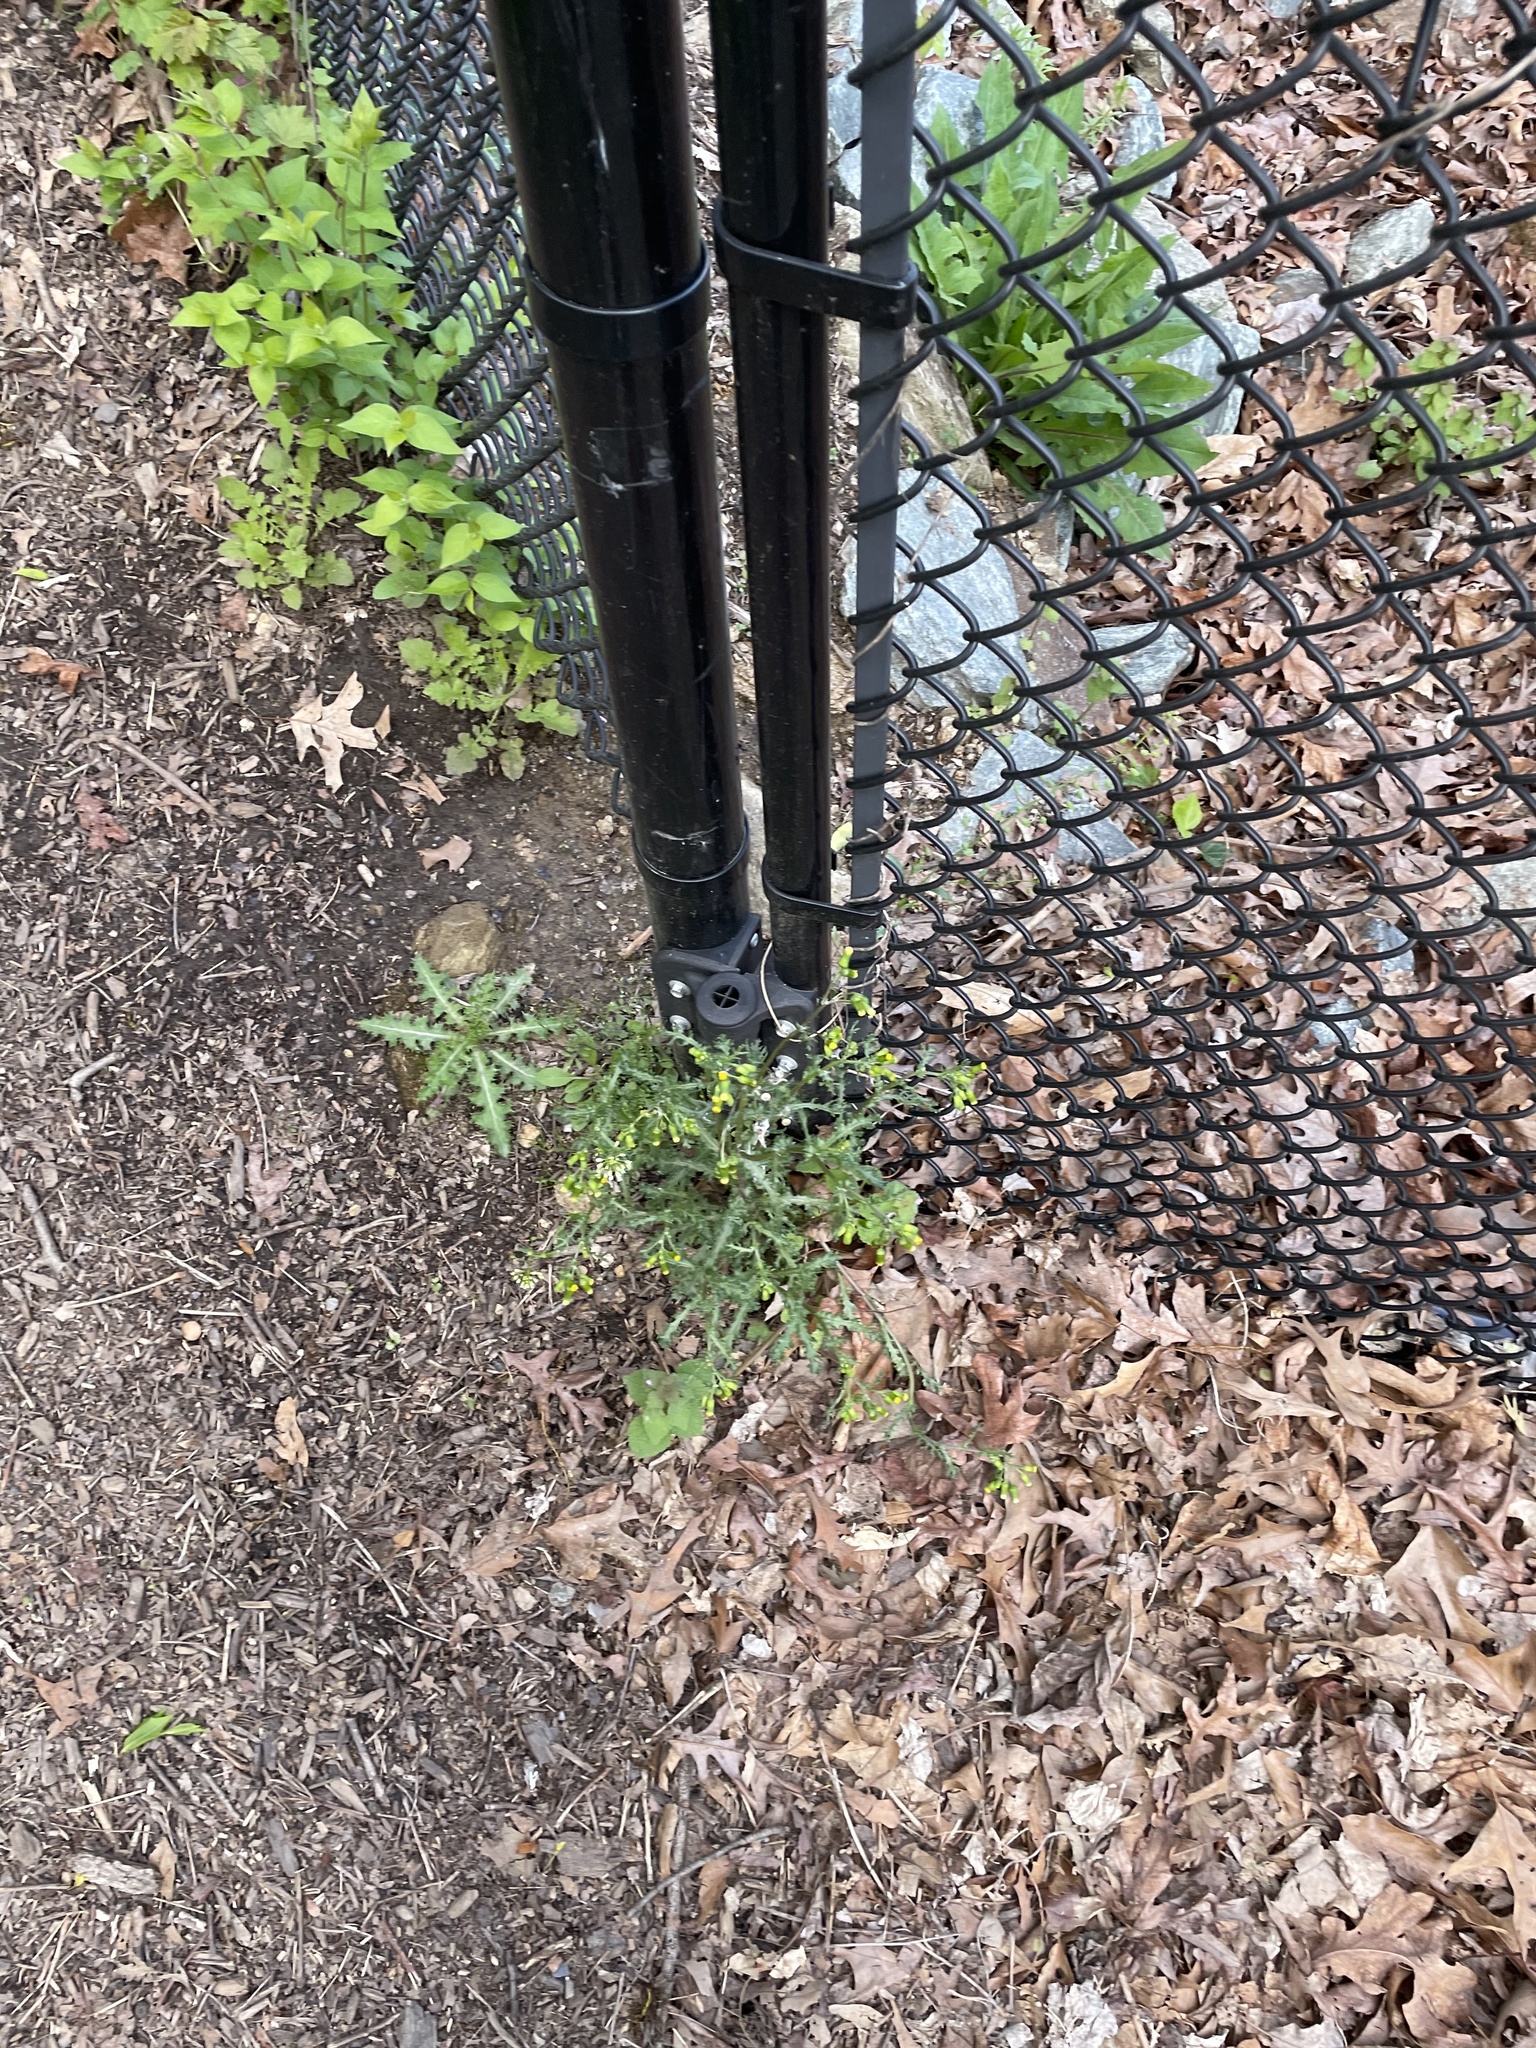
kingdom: Plantae
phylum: Tracheophyta
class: Magnoliopsida
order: Asterales
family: Asteraceae
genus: Senecio
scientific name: Senecio vulgaris
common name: Old-man-in-the-spring
